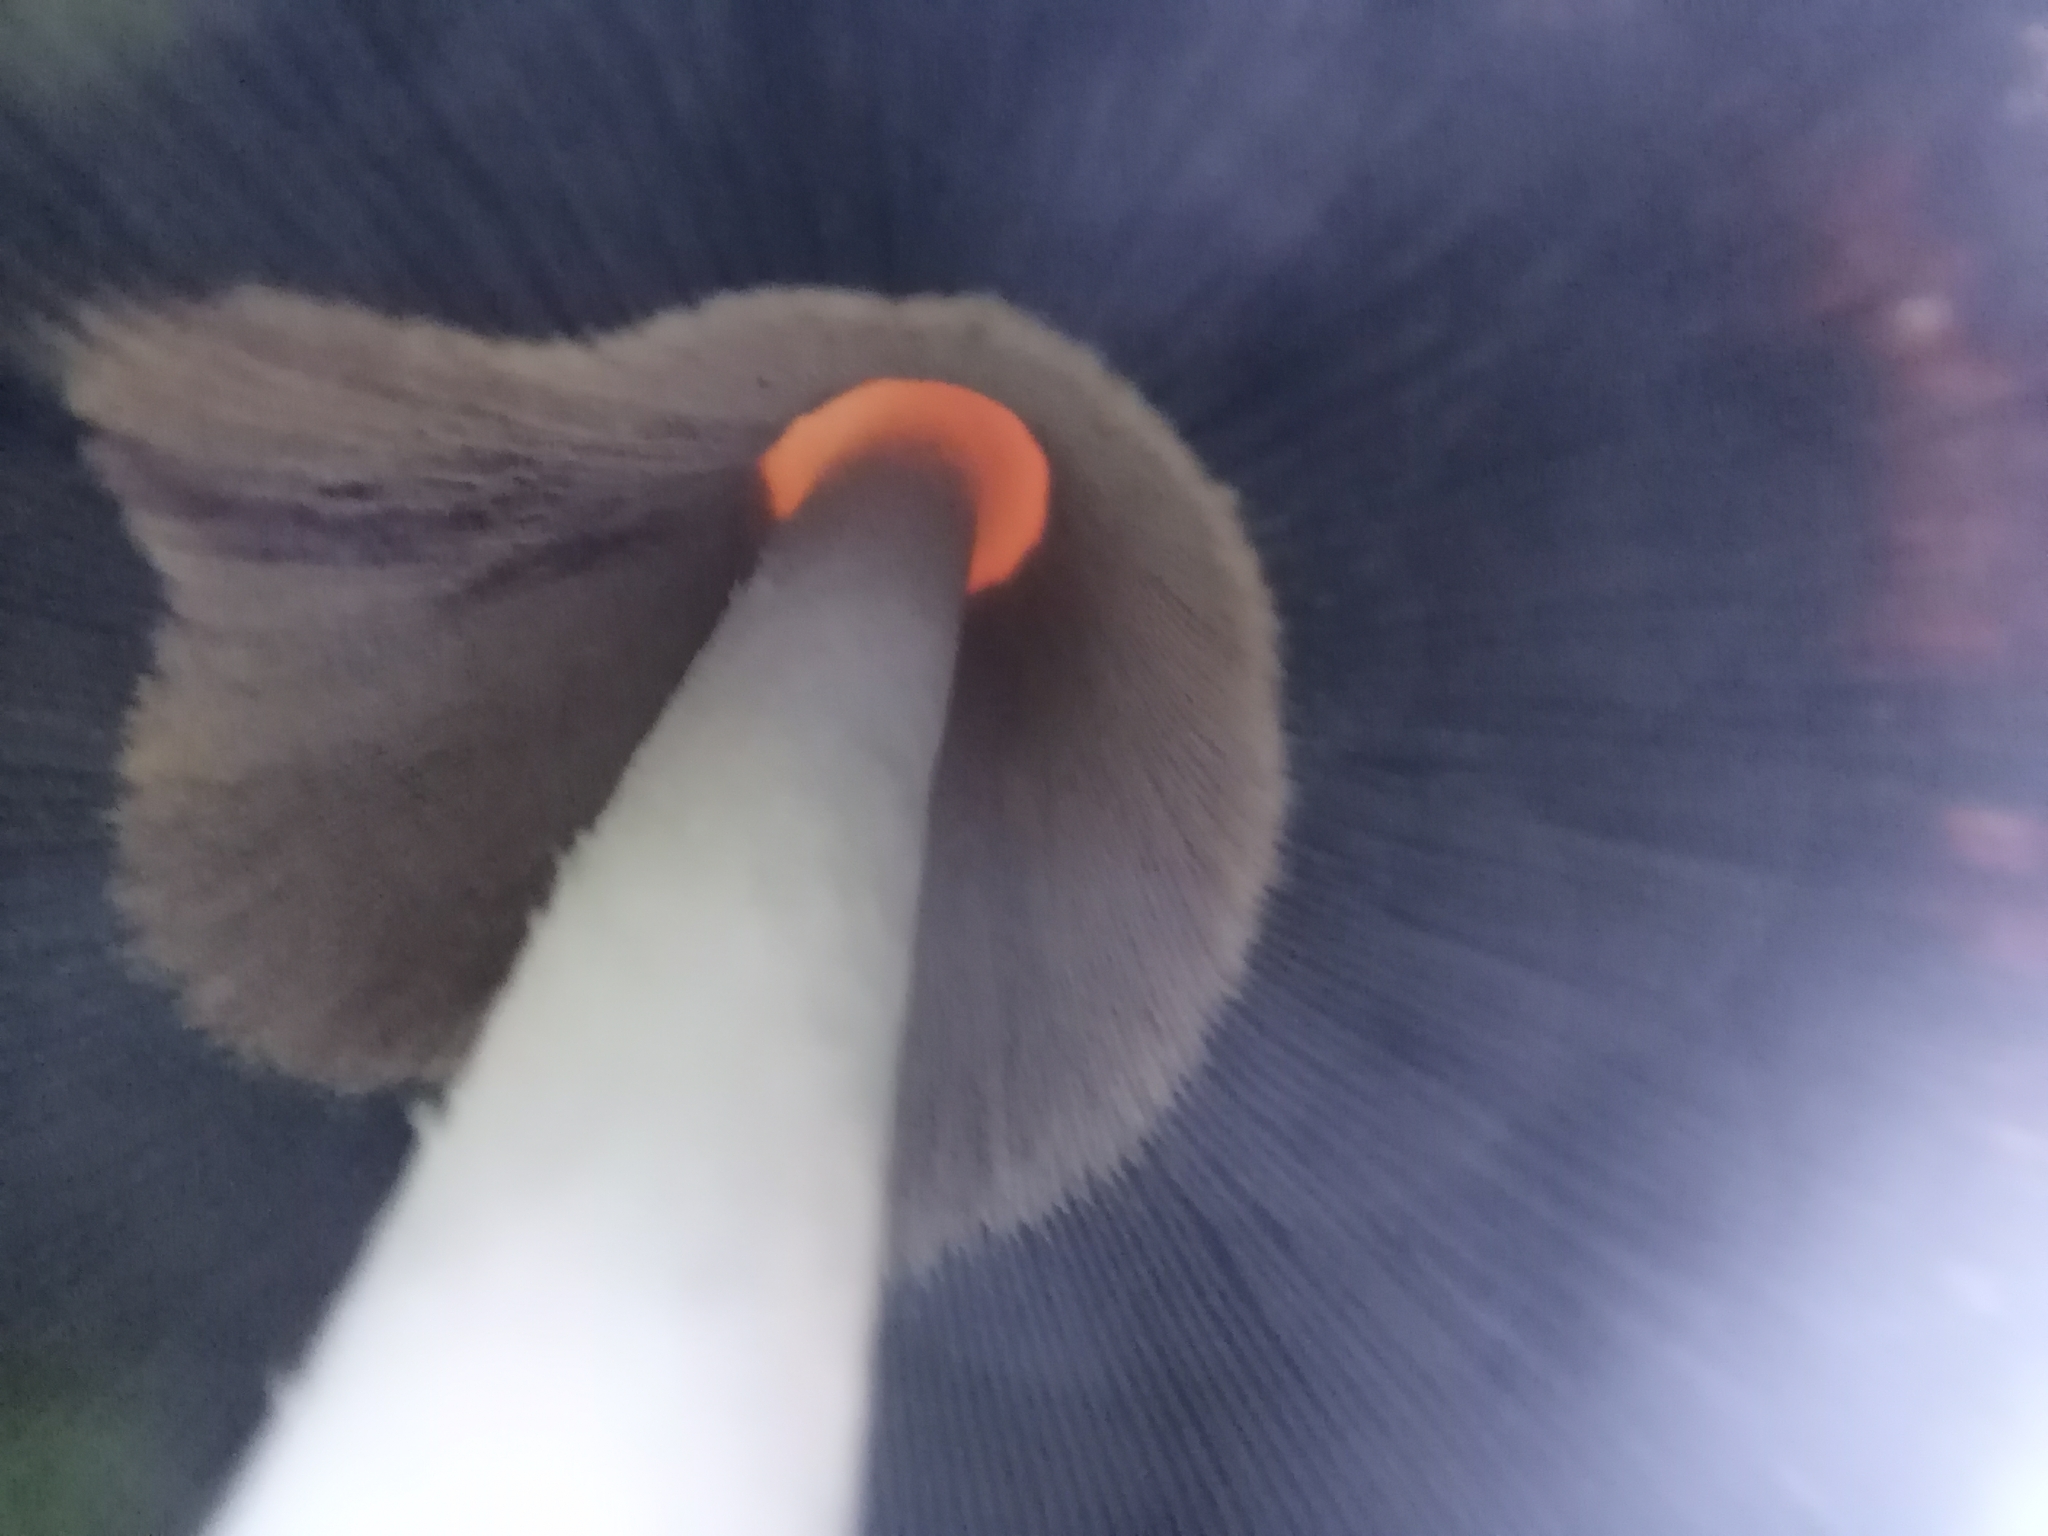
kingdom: Fungi
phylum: Basidiomycota
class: Agaricomycetes
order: Agaricales
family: Agaricaceae
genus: Coprinus
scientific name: Coprinus comatus
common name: Lawyer's wig
